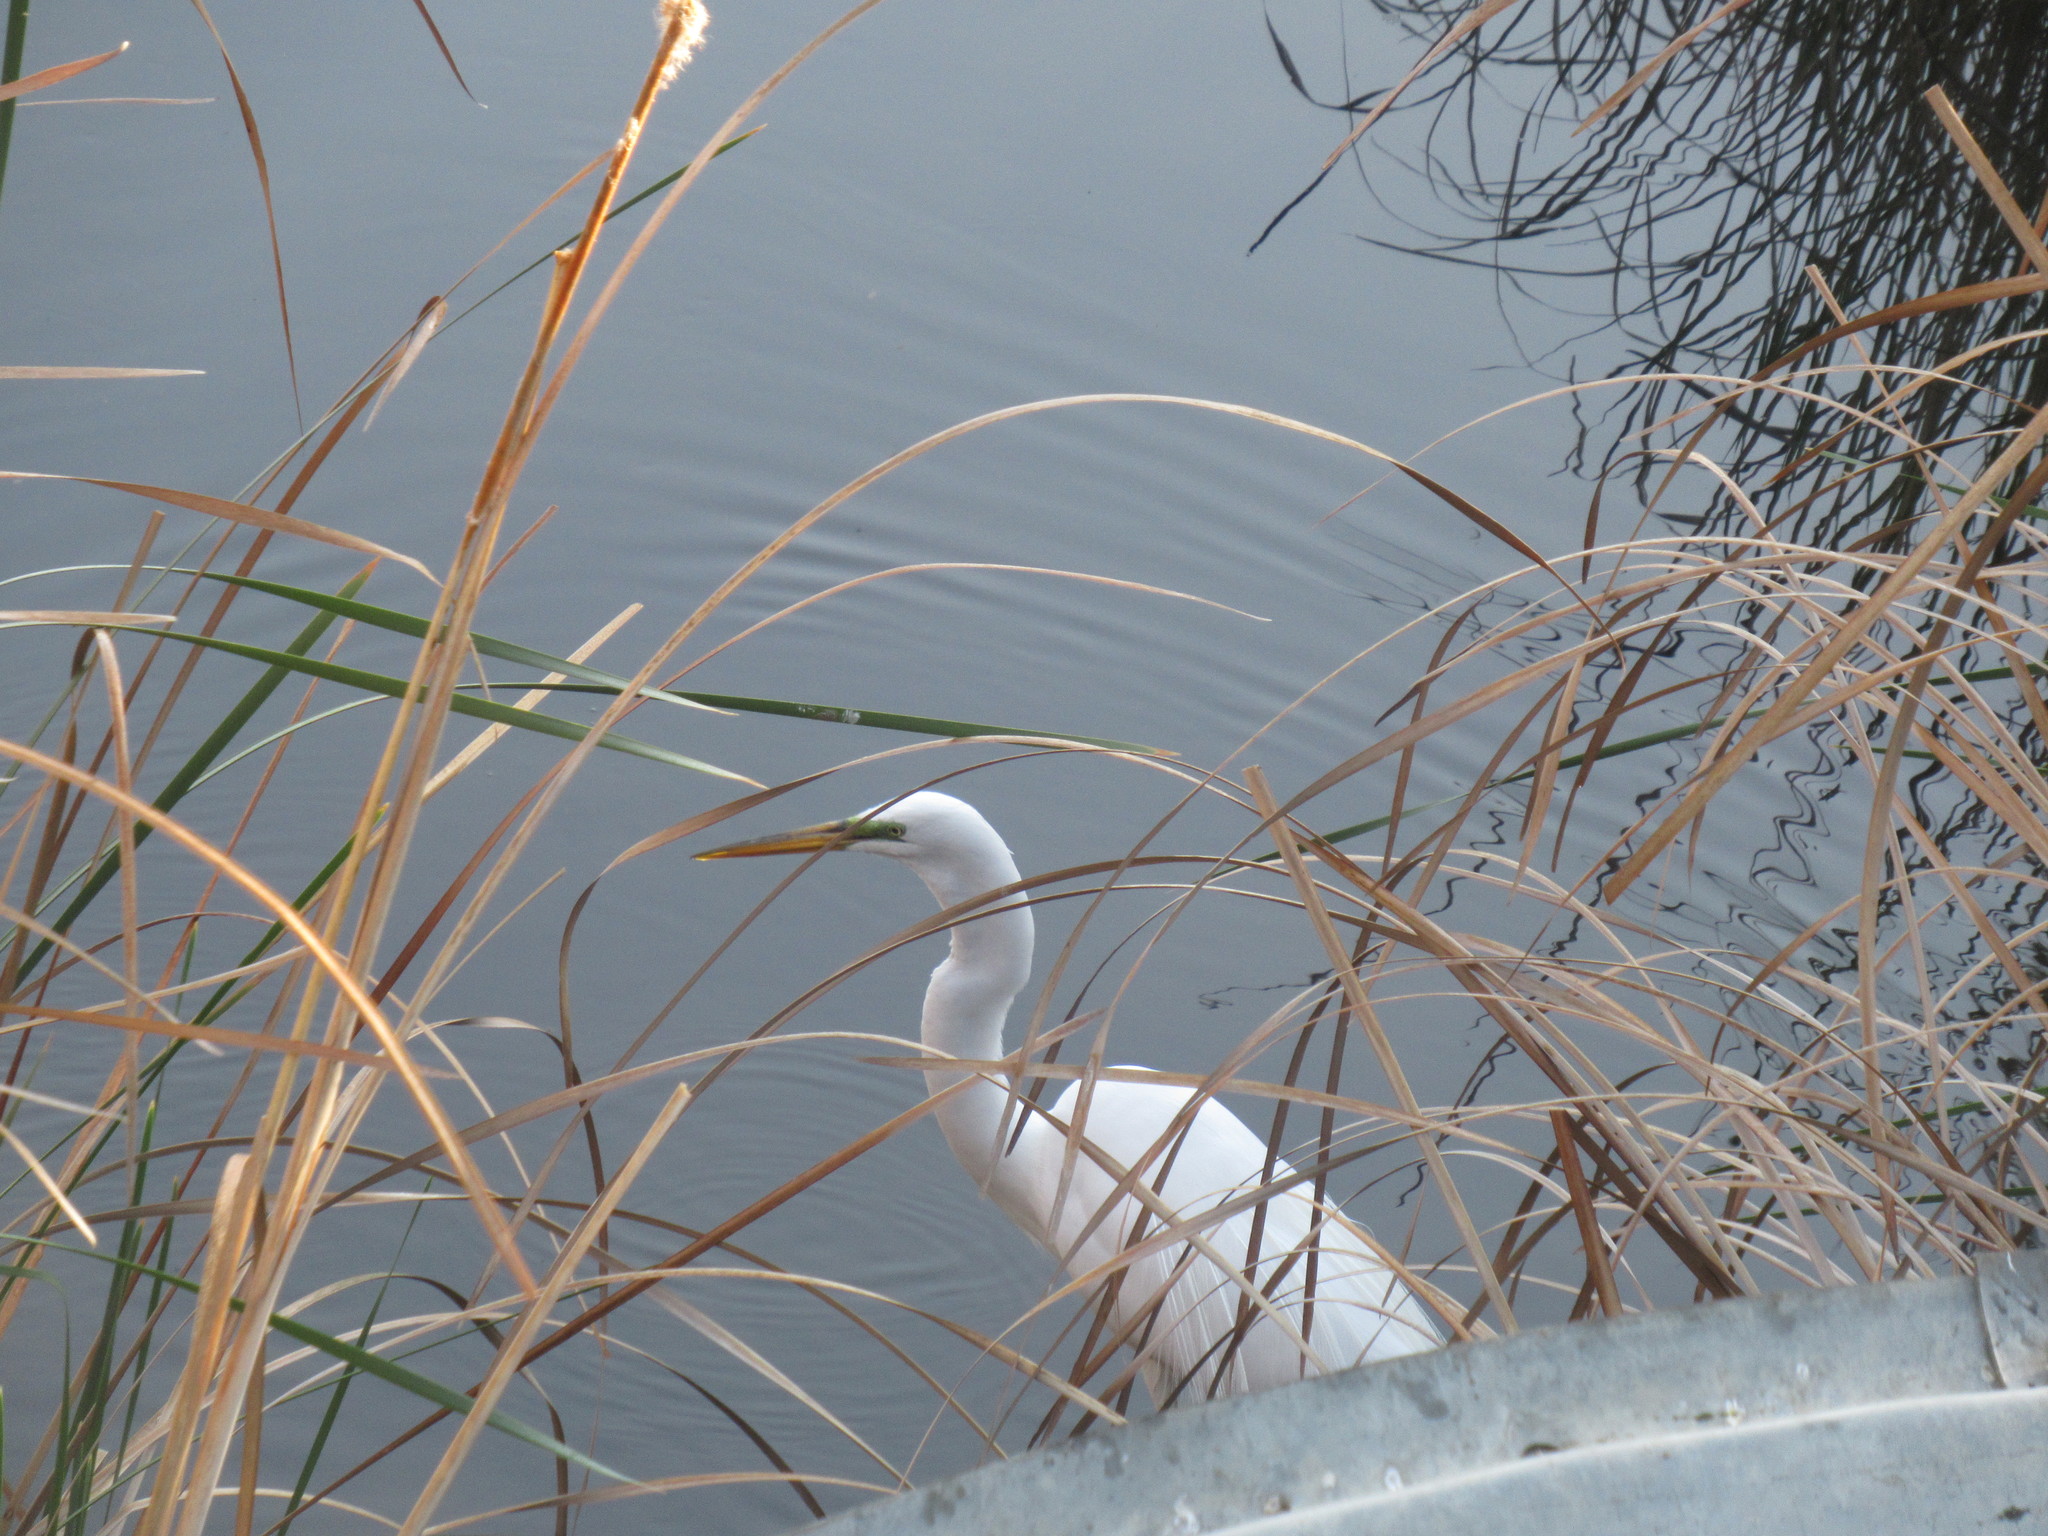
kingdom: Animalia
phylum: Chordata
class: Aves
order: Pelecaniformes
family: Ardeidae
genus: Ardea
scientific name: Ardea alba
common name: Great egret
